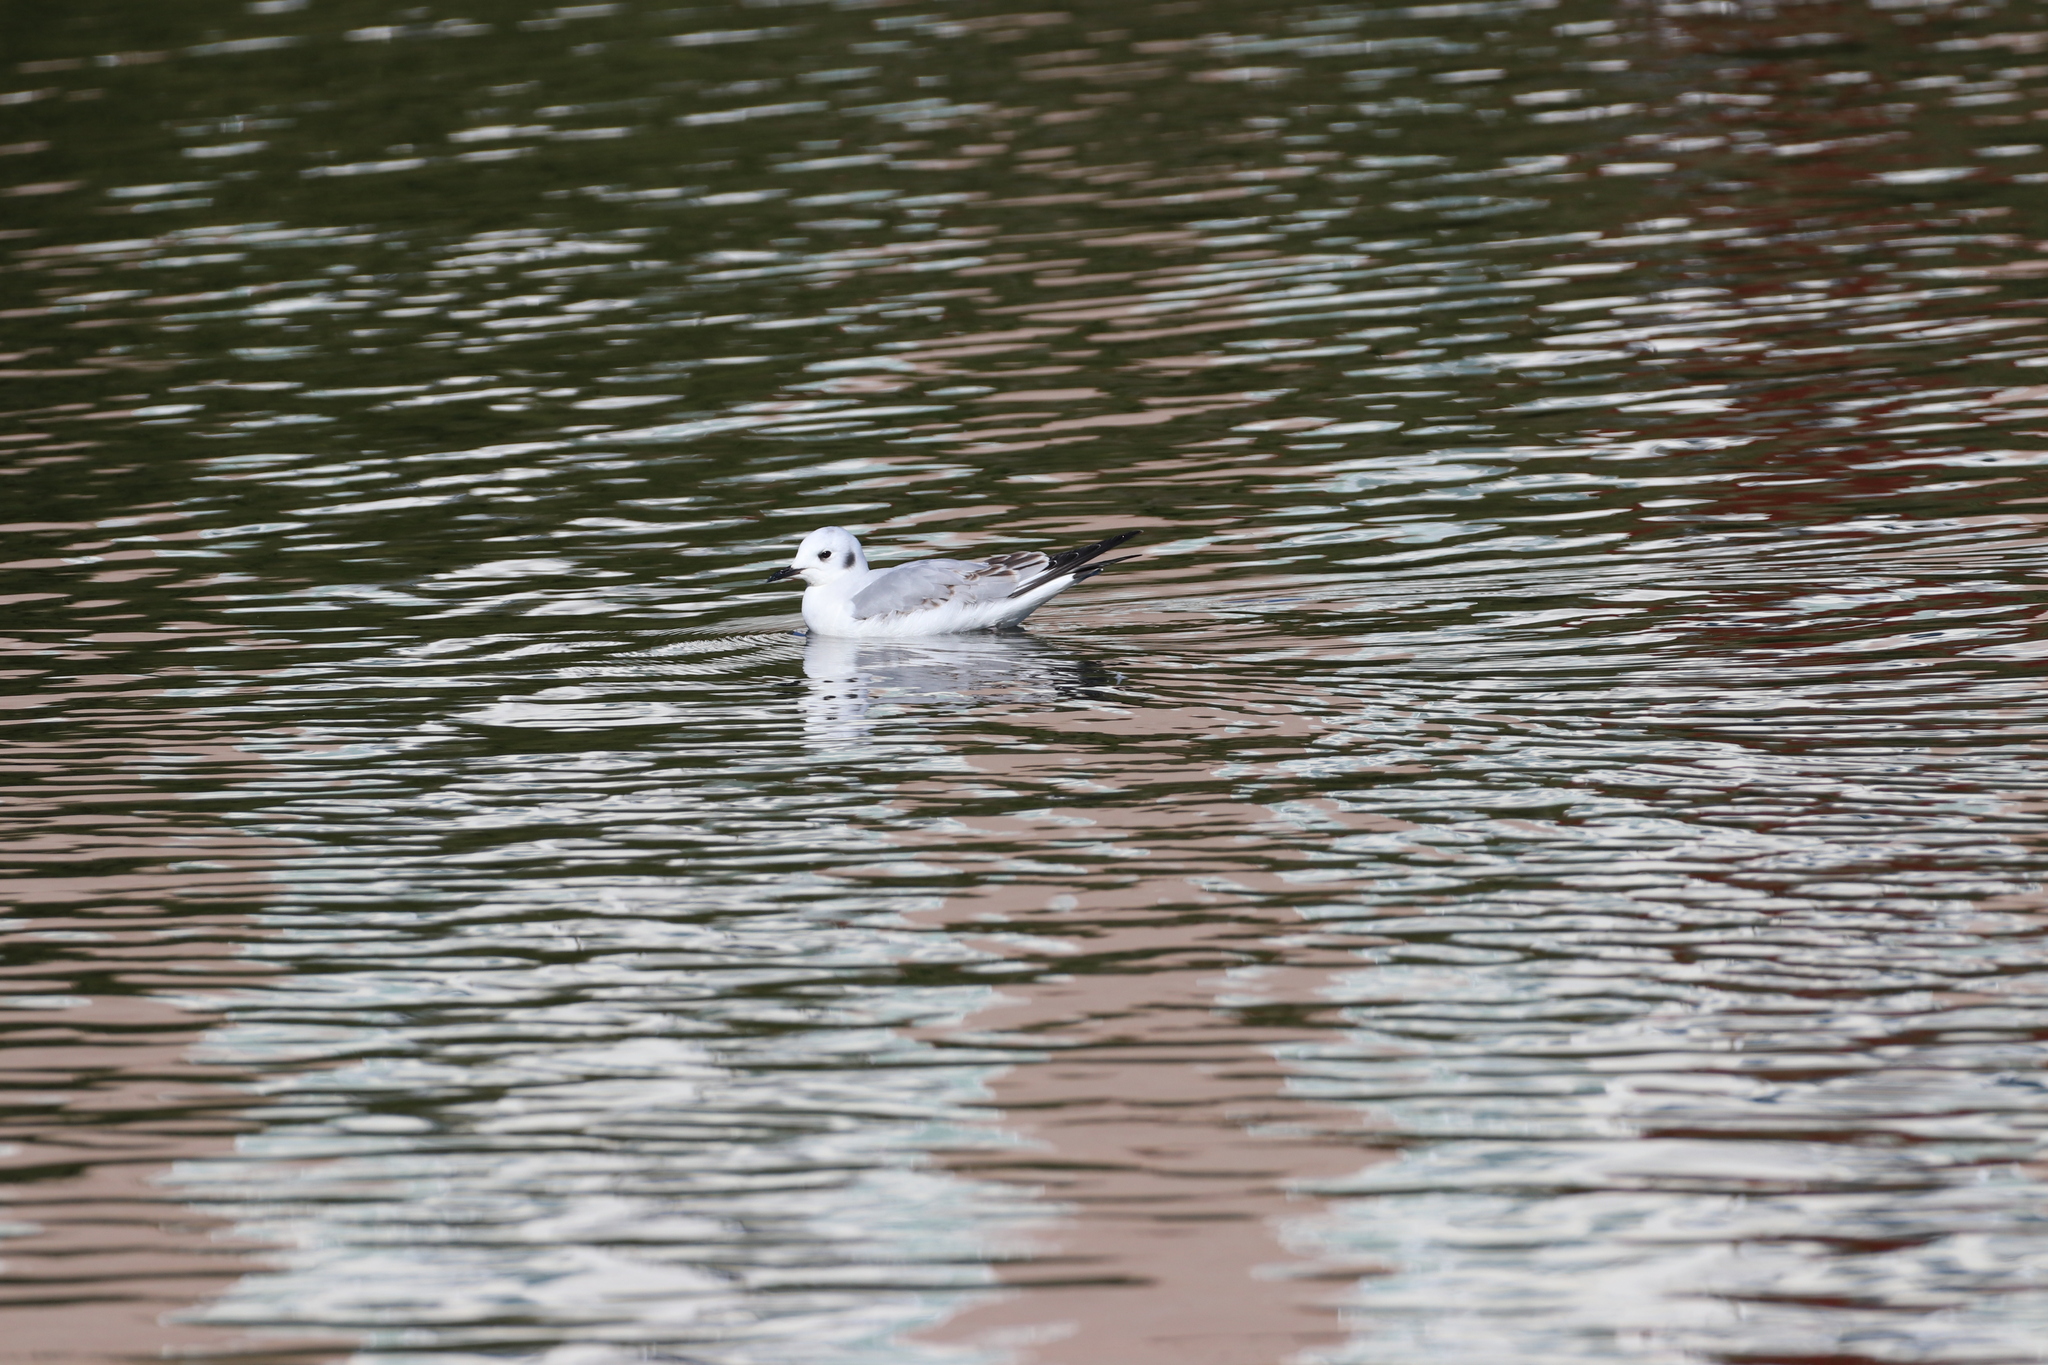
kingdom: Animalia
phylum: Chordata
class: Aves
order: Charadriiformes
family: Laridae
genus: Chroicocephalus
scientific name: Chroicocephalus philadelphia
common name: Bonaparte's gull
